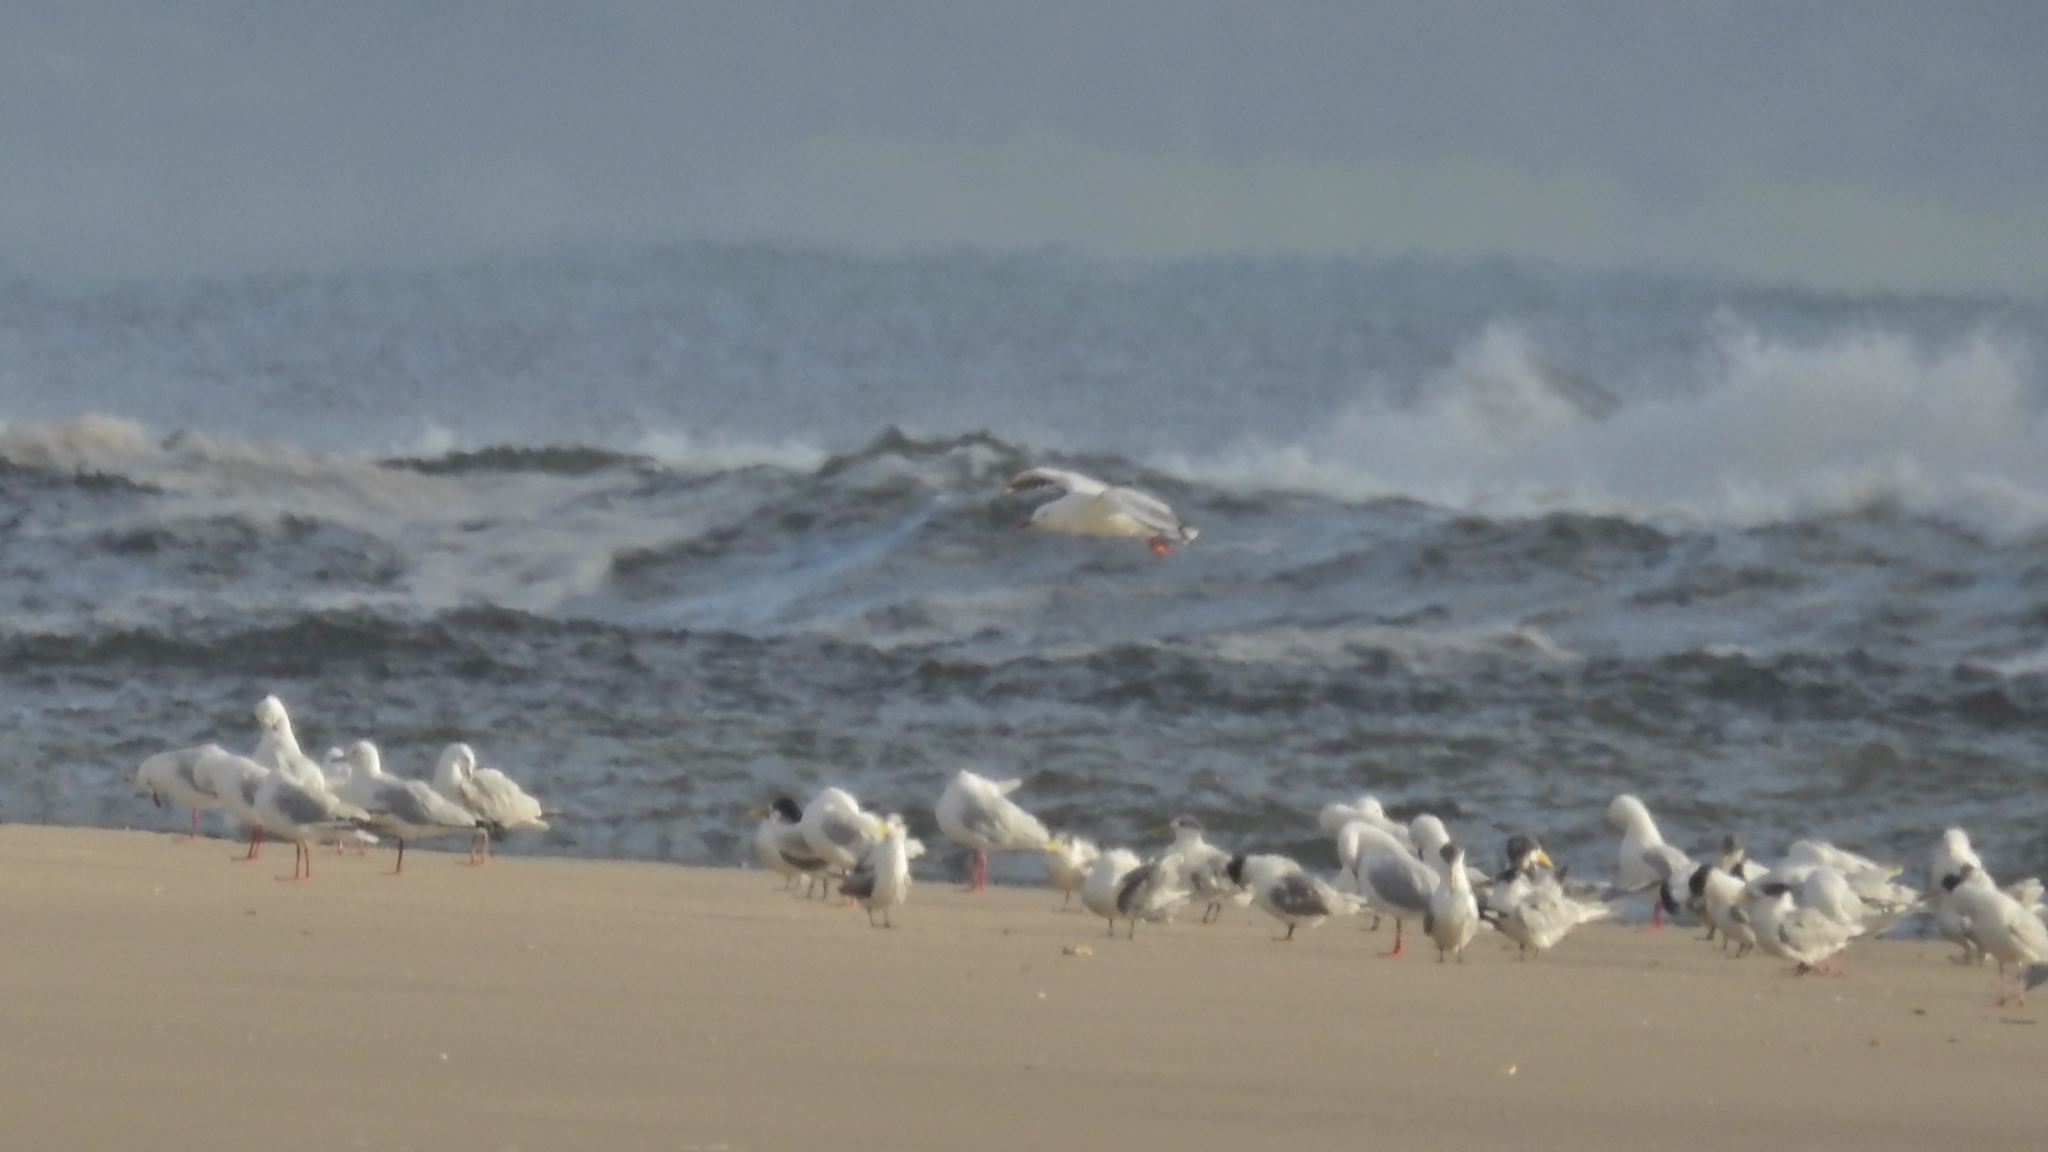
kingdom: Animalia
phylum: Chordata
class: Aves
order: Charadriiformes
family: Laridae
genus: Thalasseus
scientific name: Thalasseus bergii
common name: Greater crested tern
